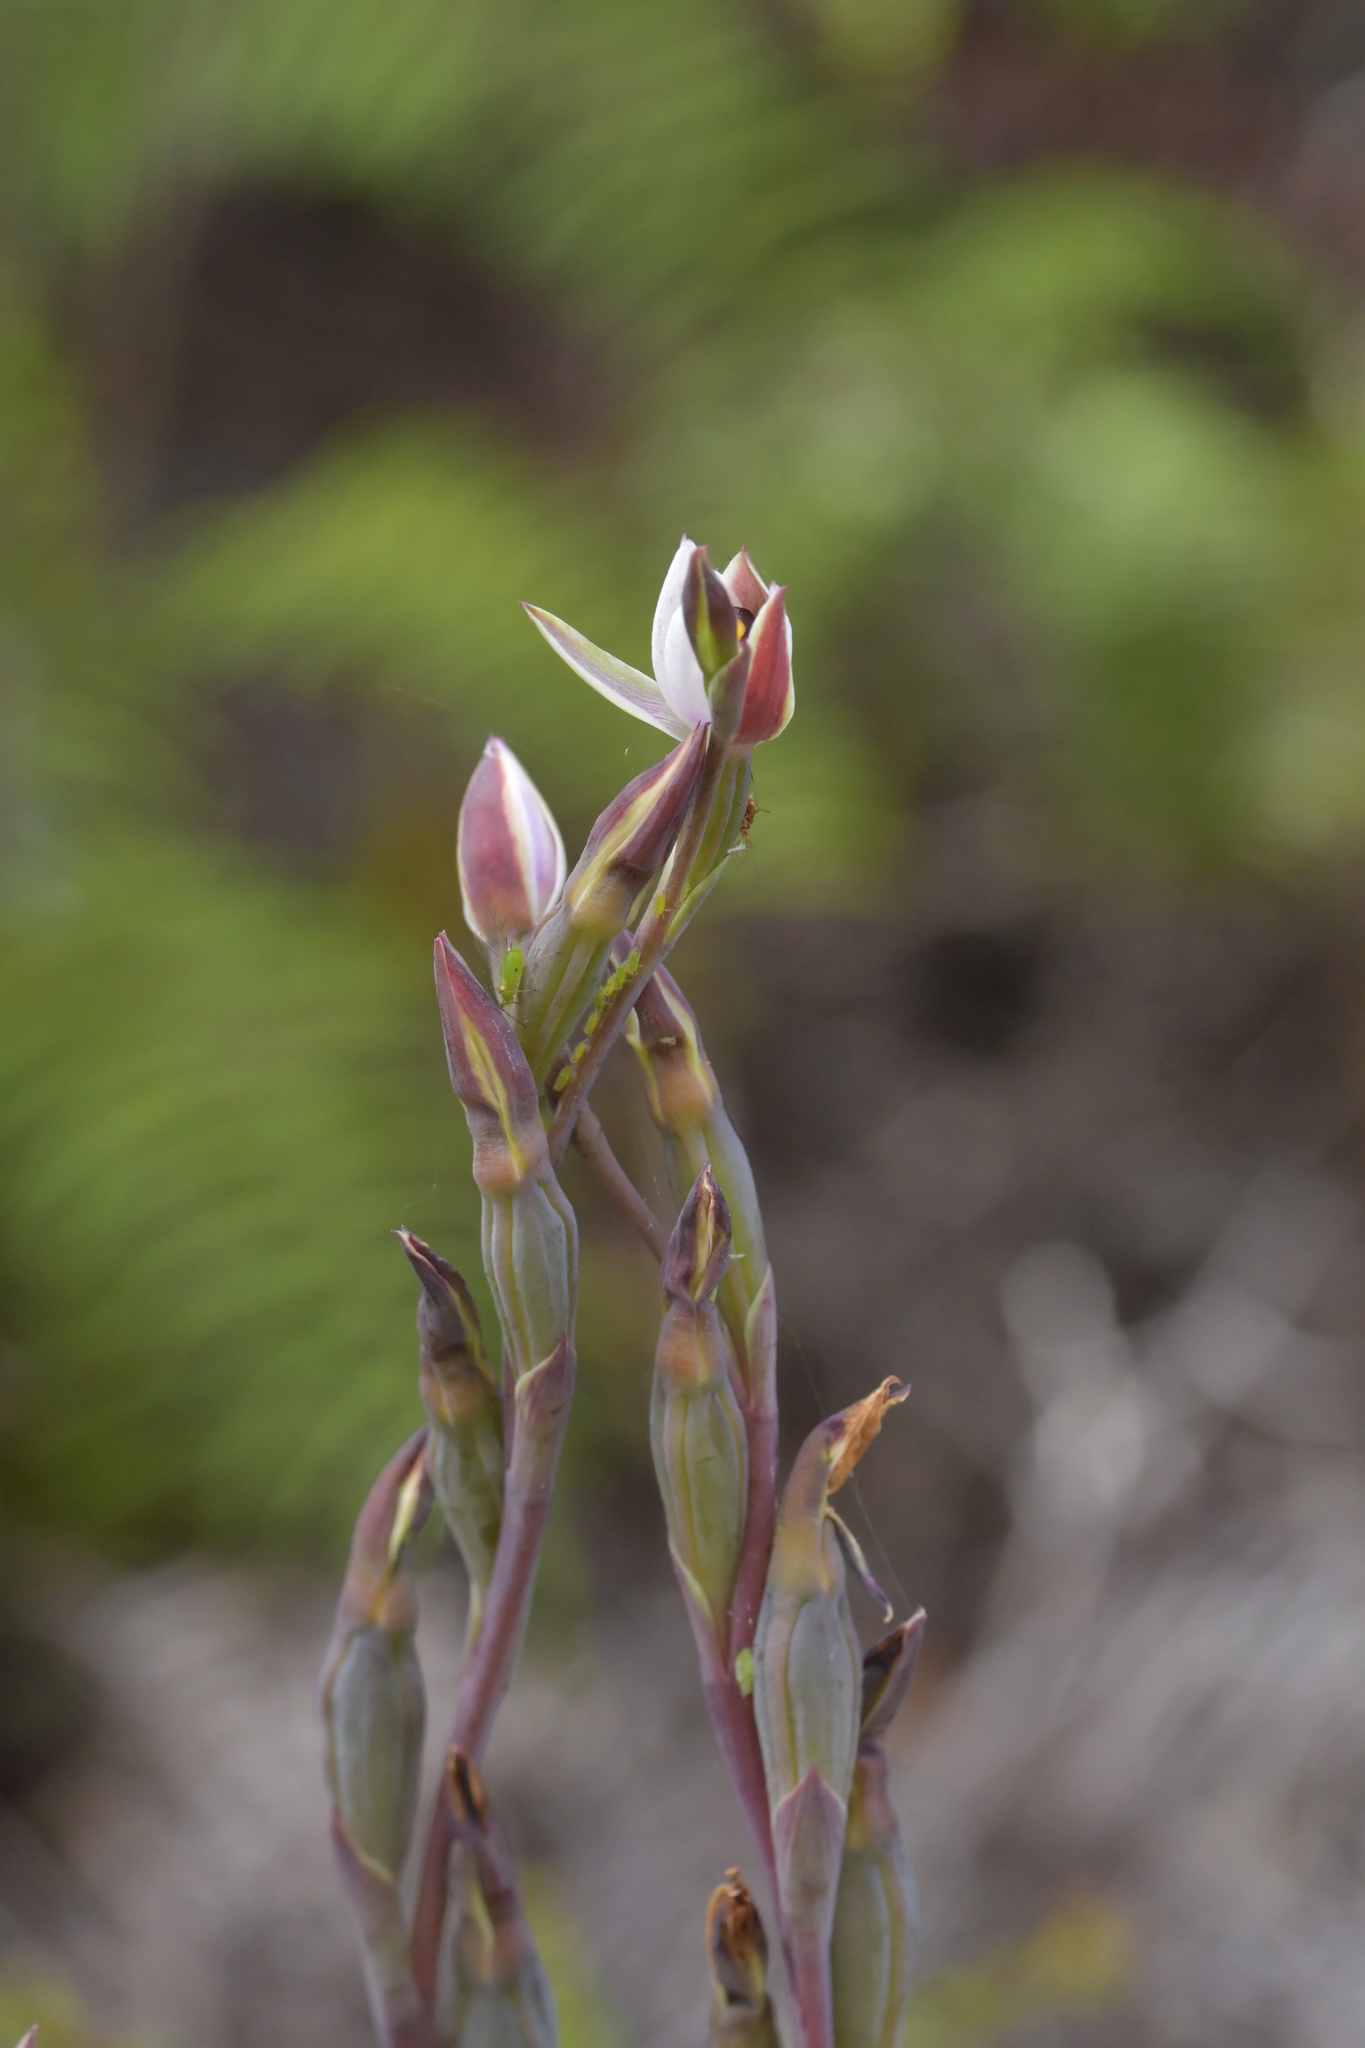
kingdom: Plantae
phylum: Tracheophyta
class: Liliopsida
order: Asparagales
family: Orchidaceae
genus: Thelymitra
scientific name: Thelymitra longifolia
